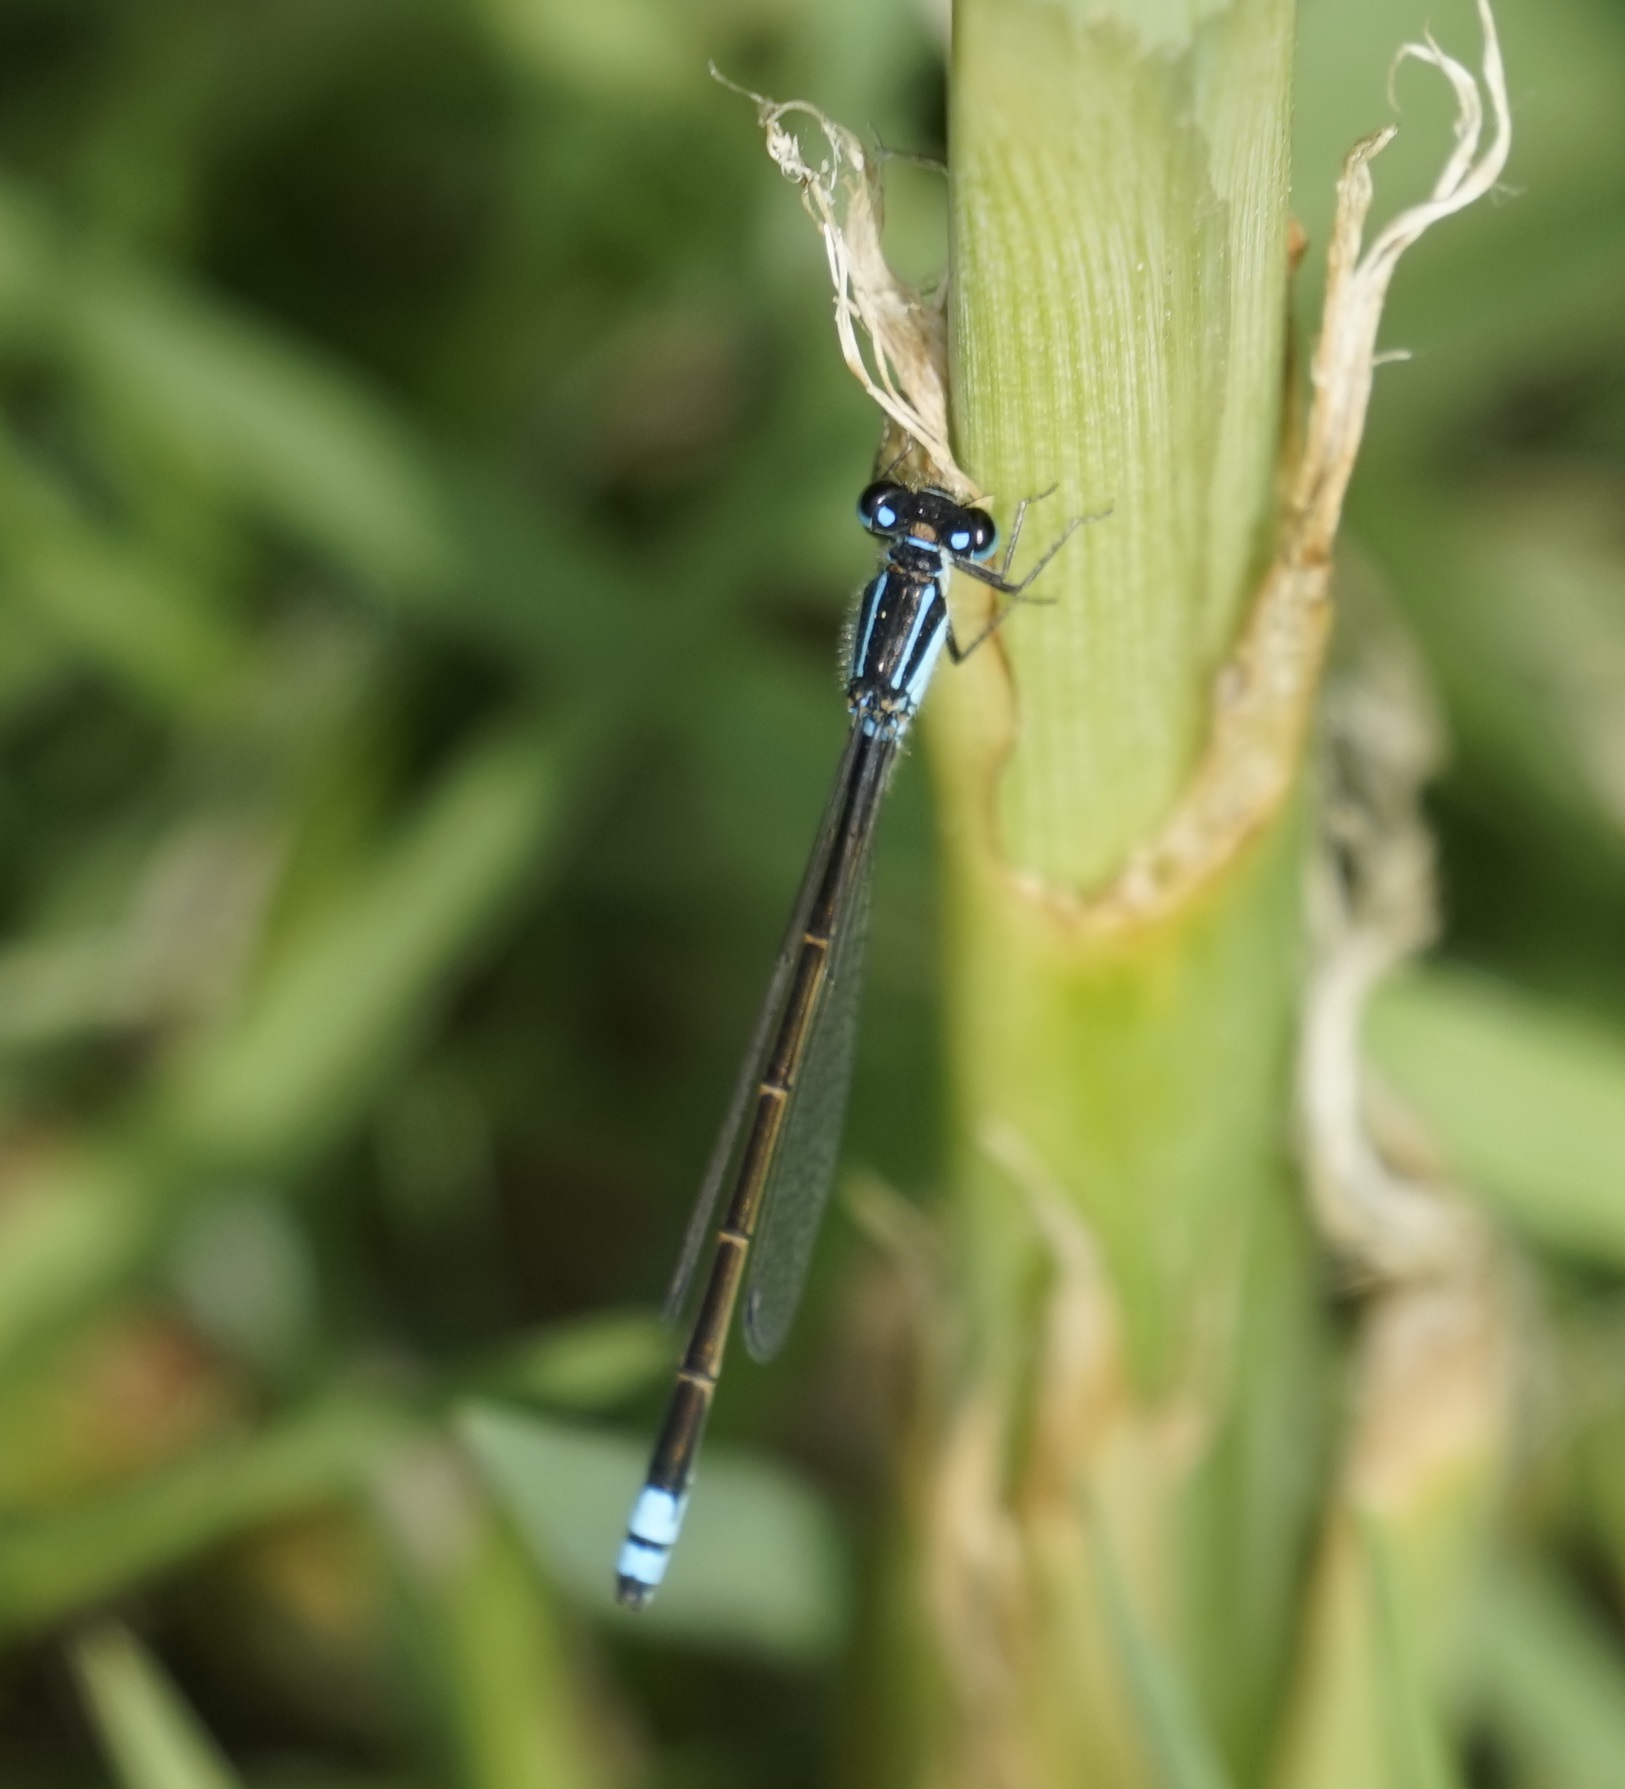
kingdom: Animalia
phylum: Arthropoda
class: Insecta
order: Odonata
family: Coenagrionidae
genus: Ischnura
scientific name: Ischnura heterosticta
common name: Common bluetail
